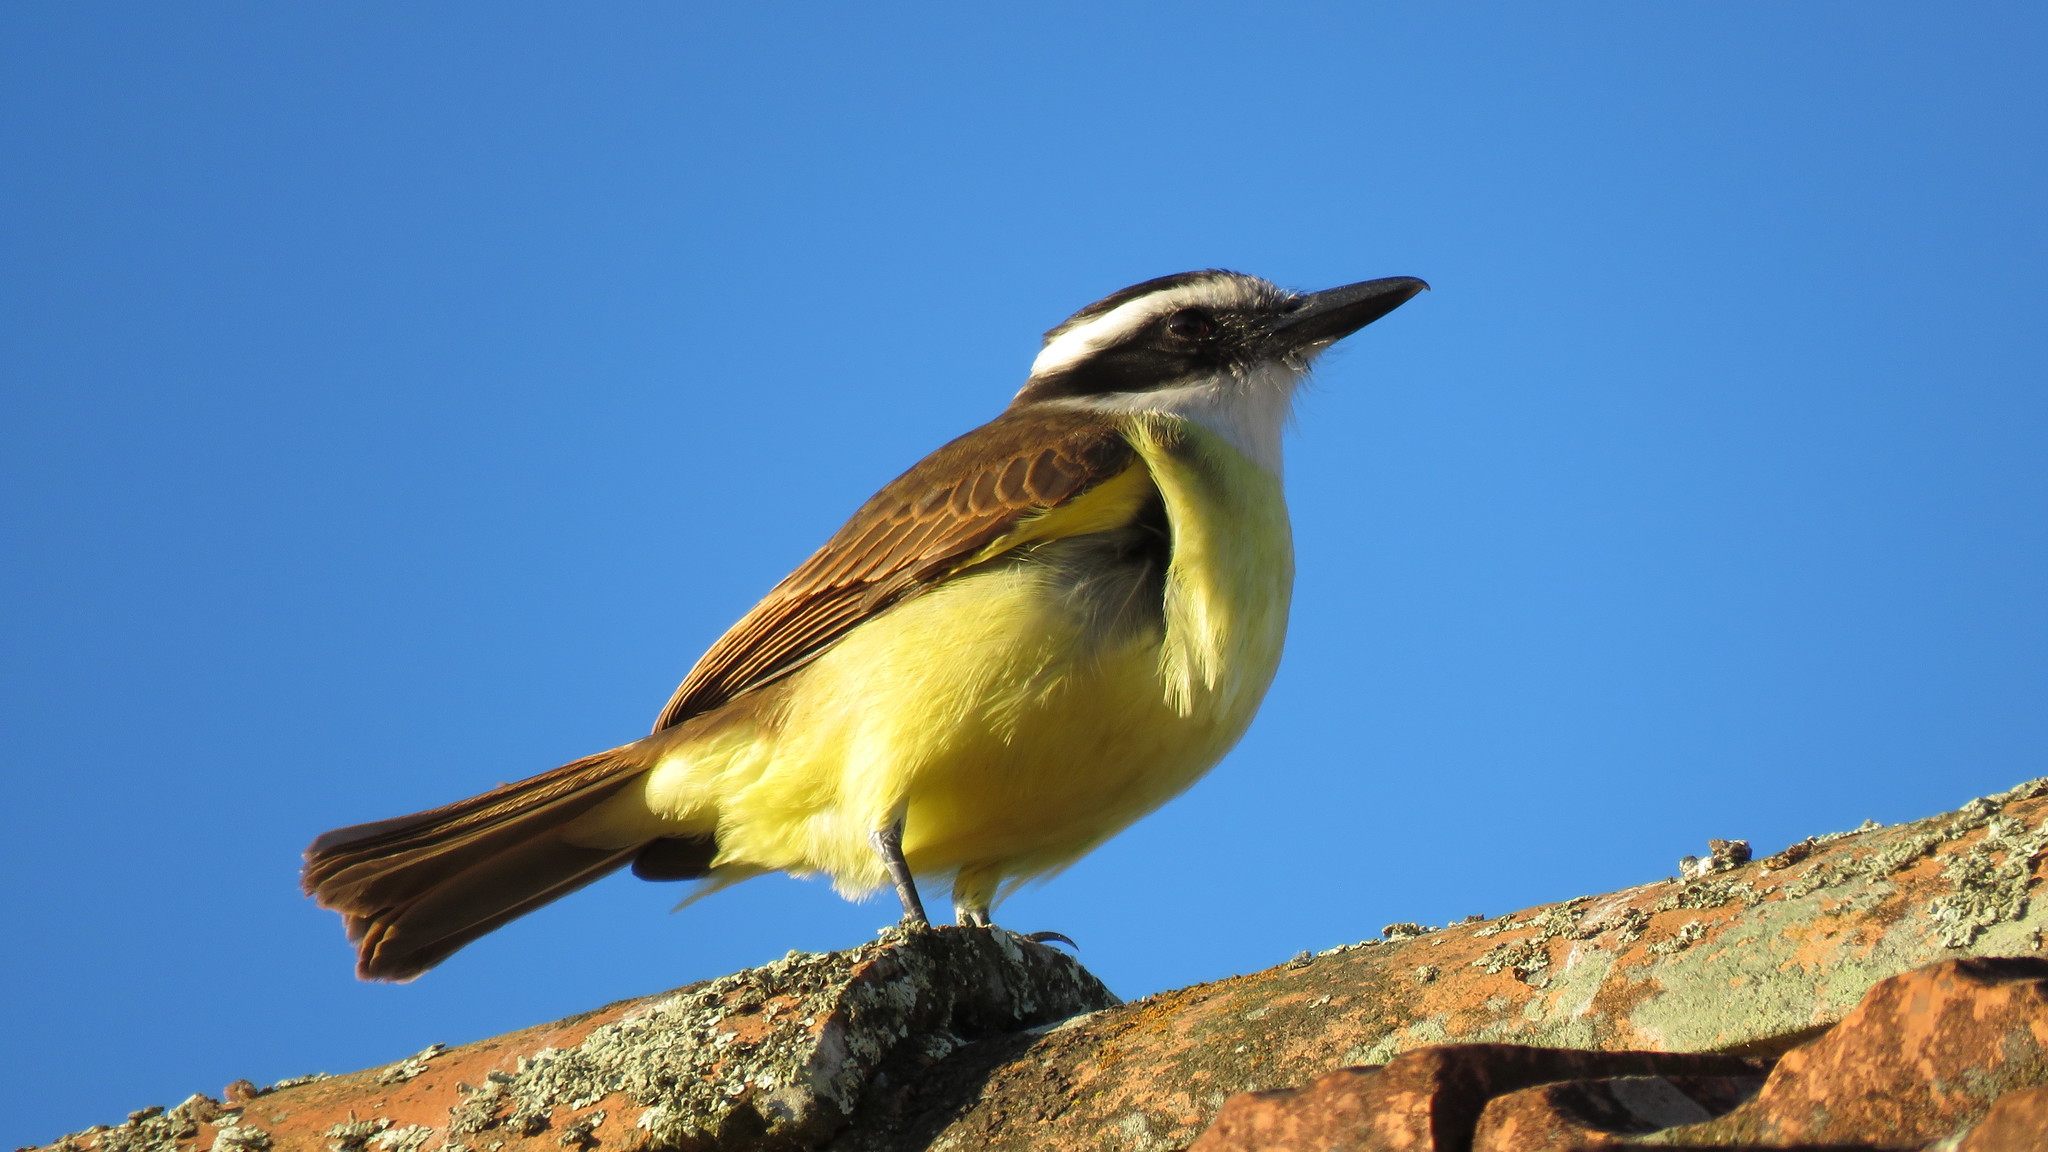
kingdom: Animalia
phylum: Chordata
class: Aves
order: Passeriformes
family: Tyrannidae
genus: Pitangus
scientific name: Pitangus sulphuratus
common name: Great kiskadee
